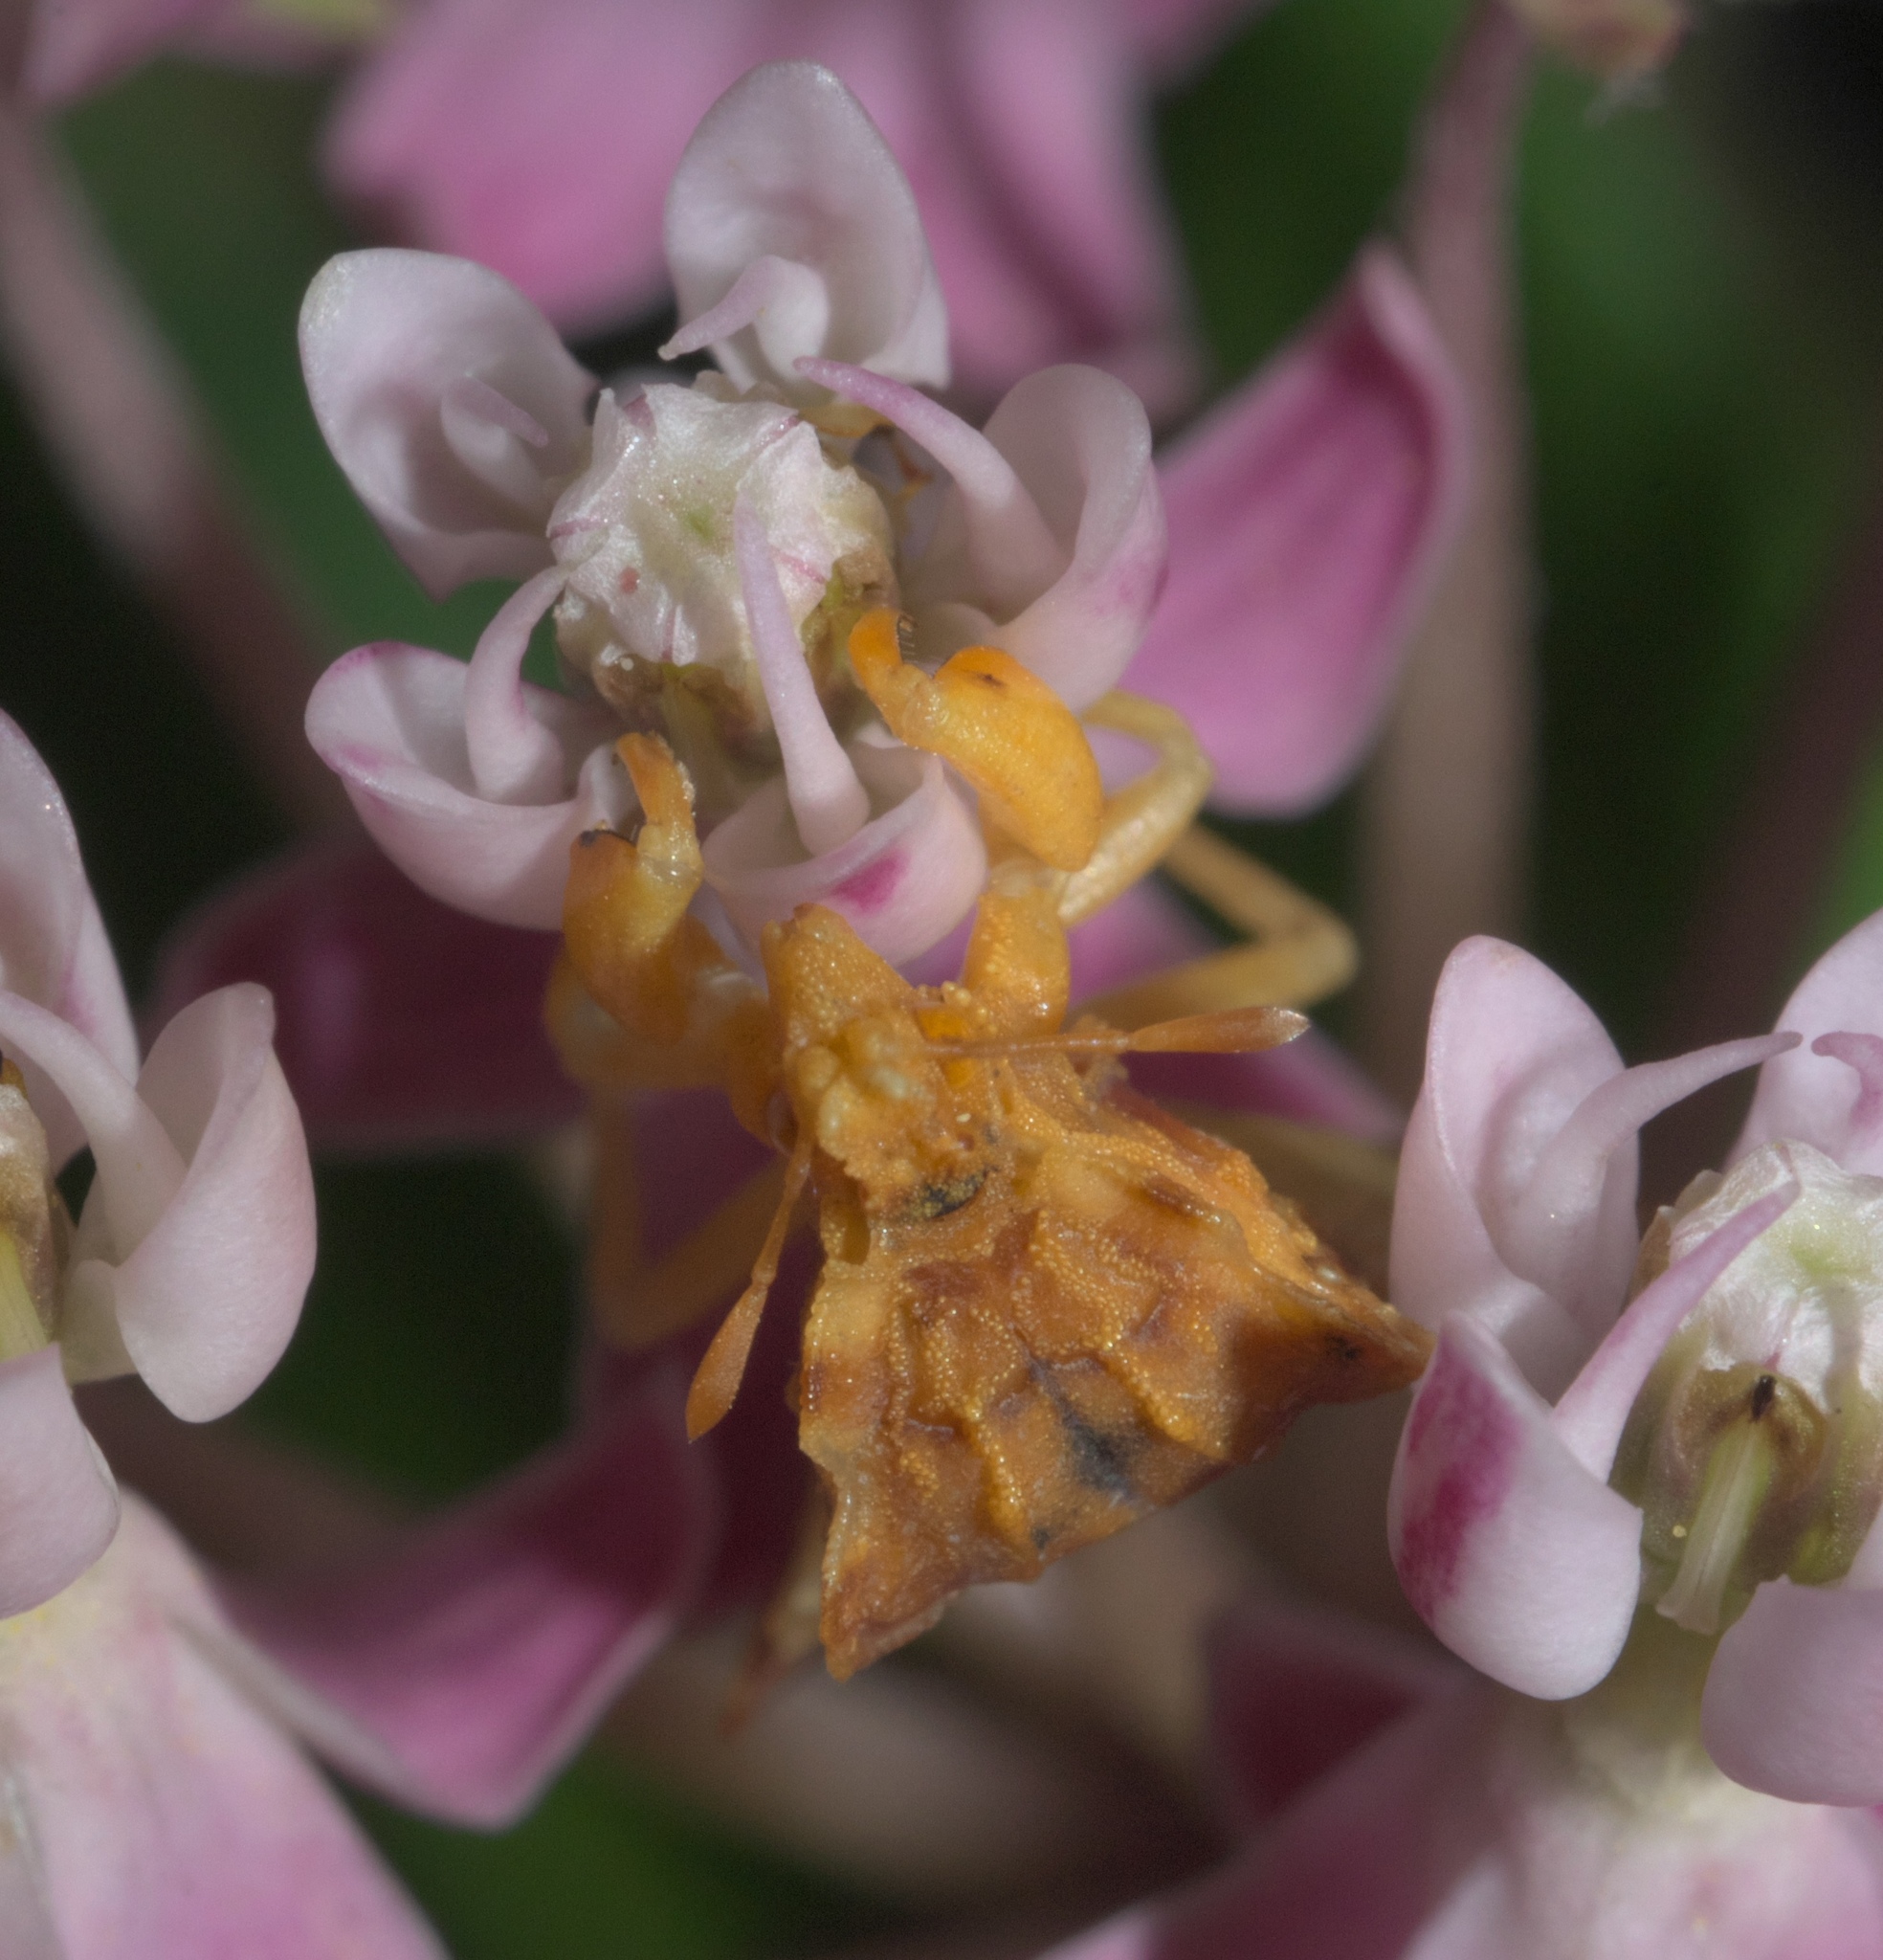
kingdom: Animalia
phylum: Arthropoda
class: Insecta
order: Hemiptera
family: Reduviidae
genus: Phymata
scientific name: Phymata fasciata
